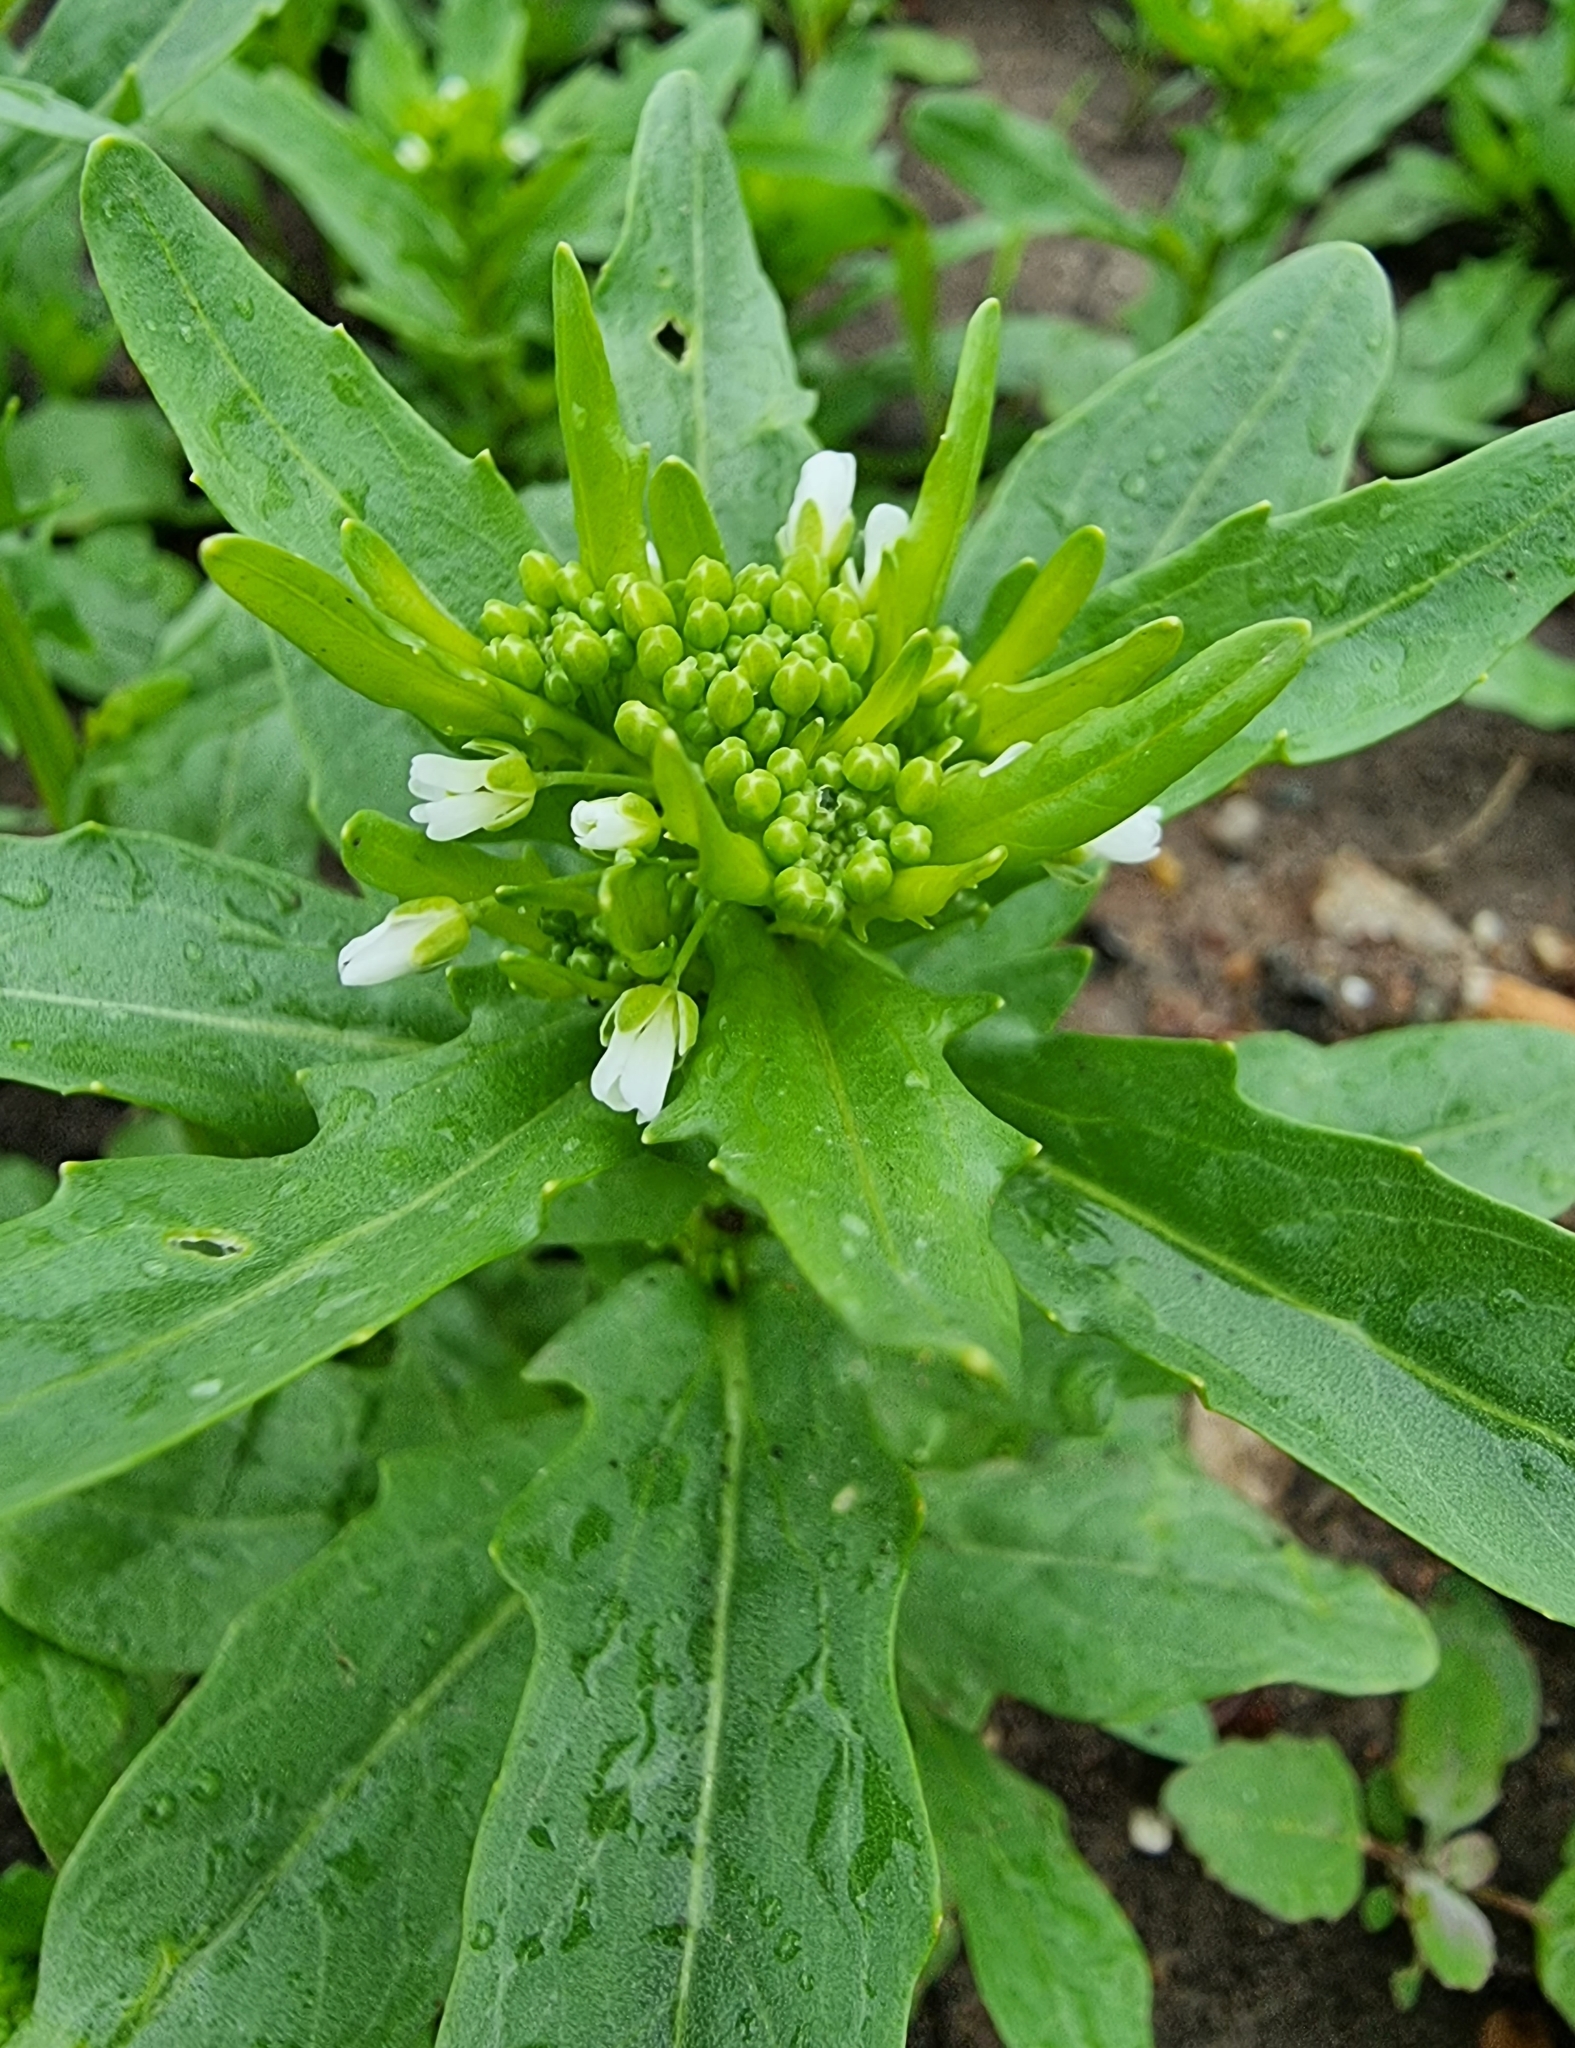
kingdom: Plantae
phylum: Tracheophyta
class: Magnoliopsida
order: Brassicales
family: Brassicaceae
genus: Thlaspi
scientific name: Thlaspi arvense
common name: Field pennycress
